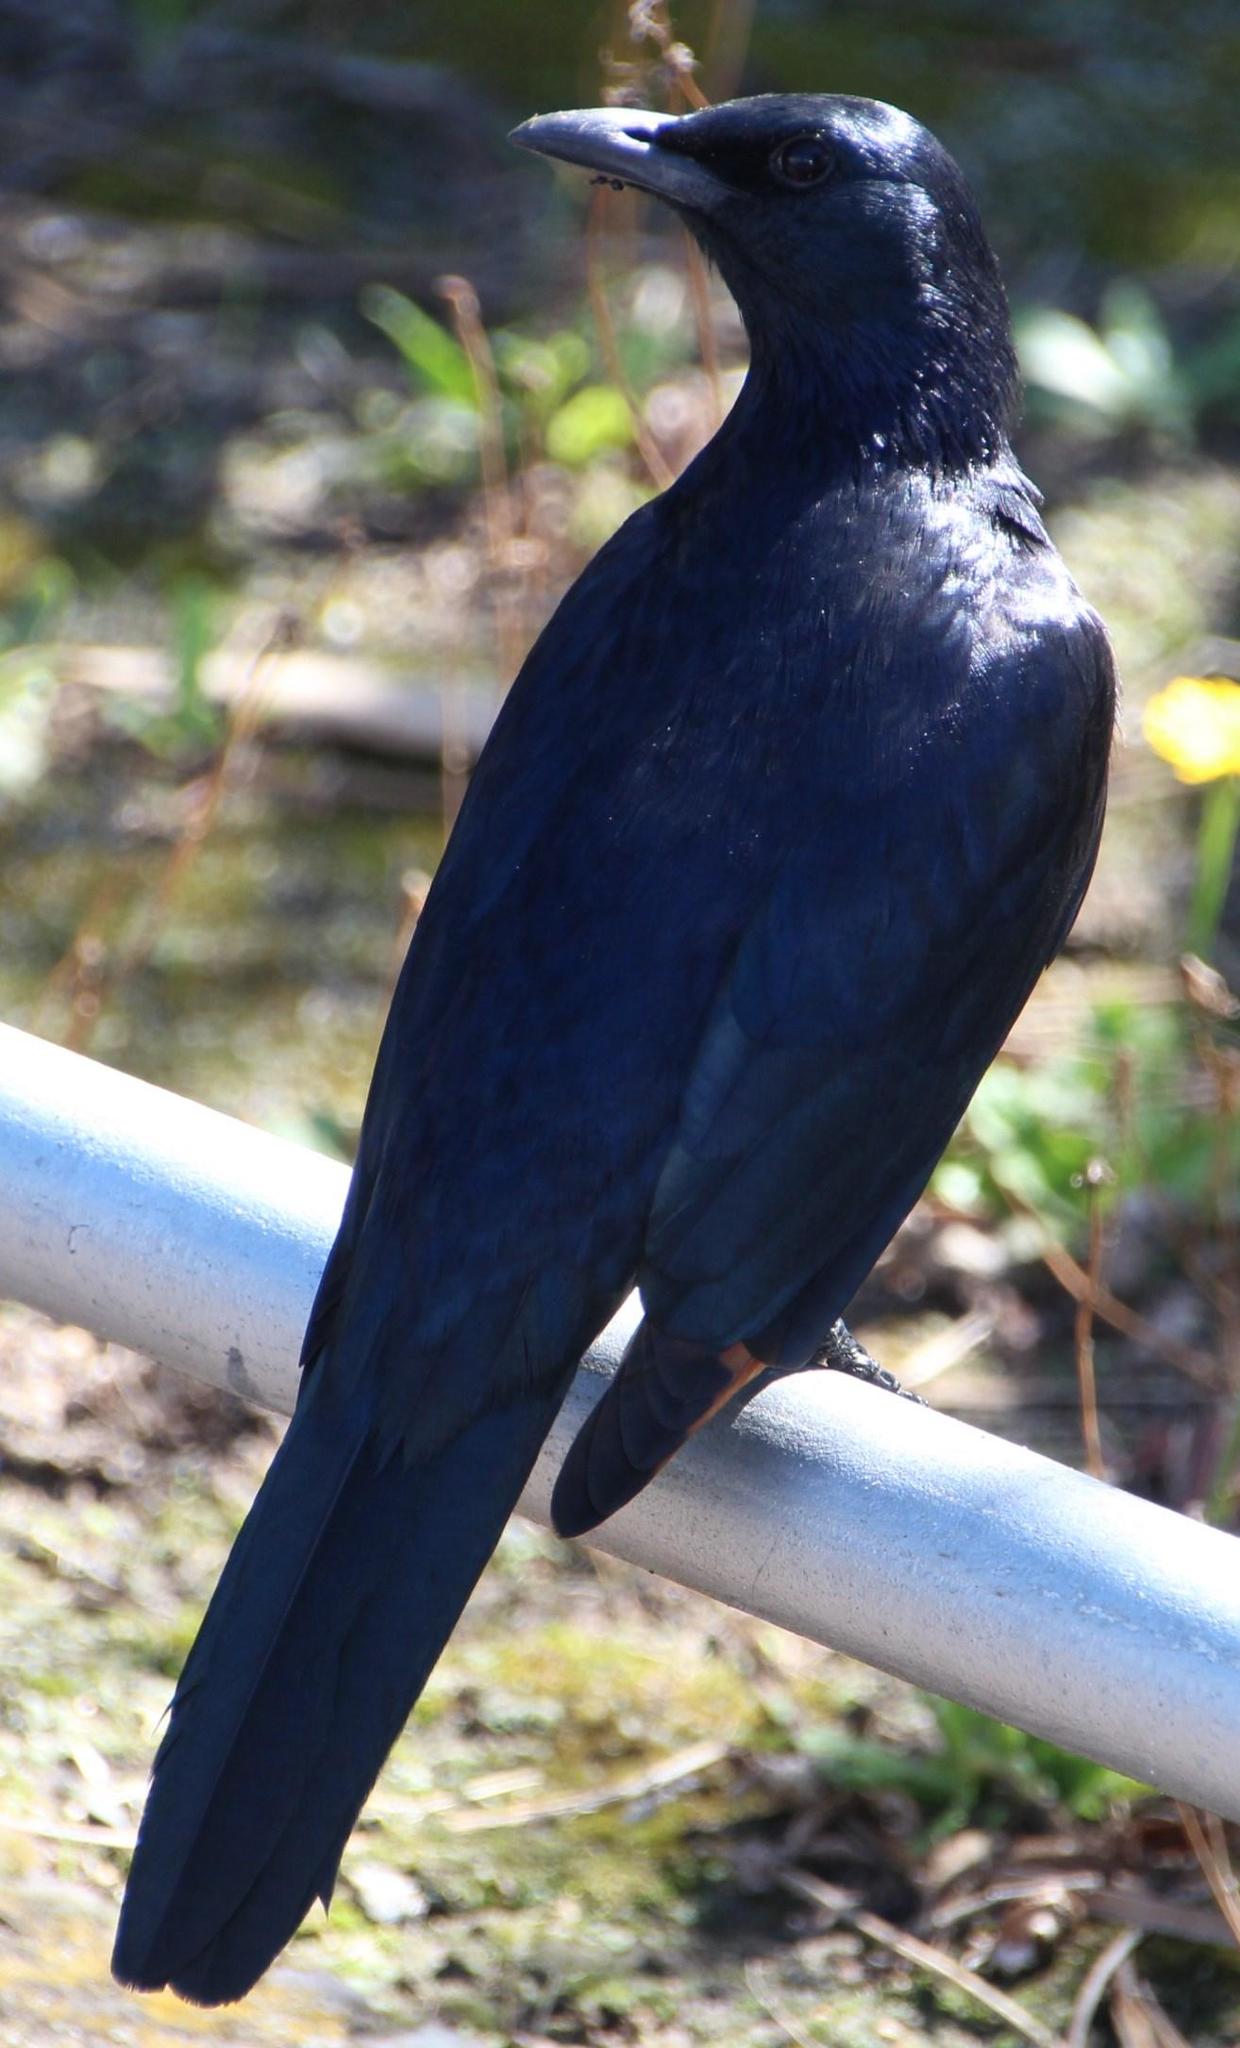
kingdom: Animalia
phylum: Chordata
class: Aves
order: Passeriformes
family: Sturnidae
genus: Onychognathus
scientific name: Onychognathus morio
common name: Red-winged starling
